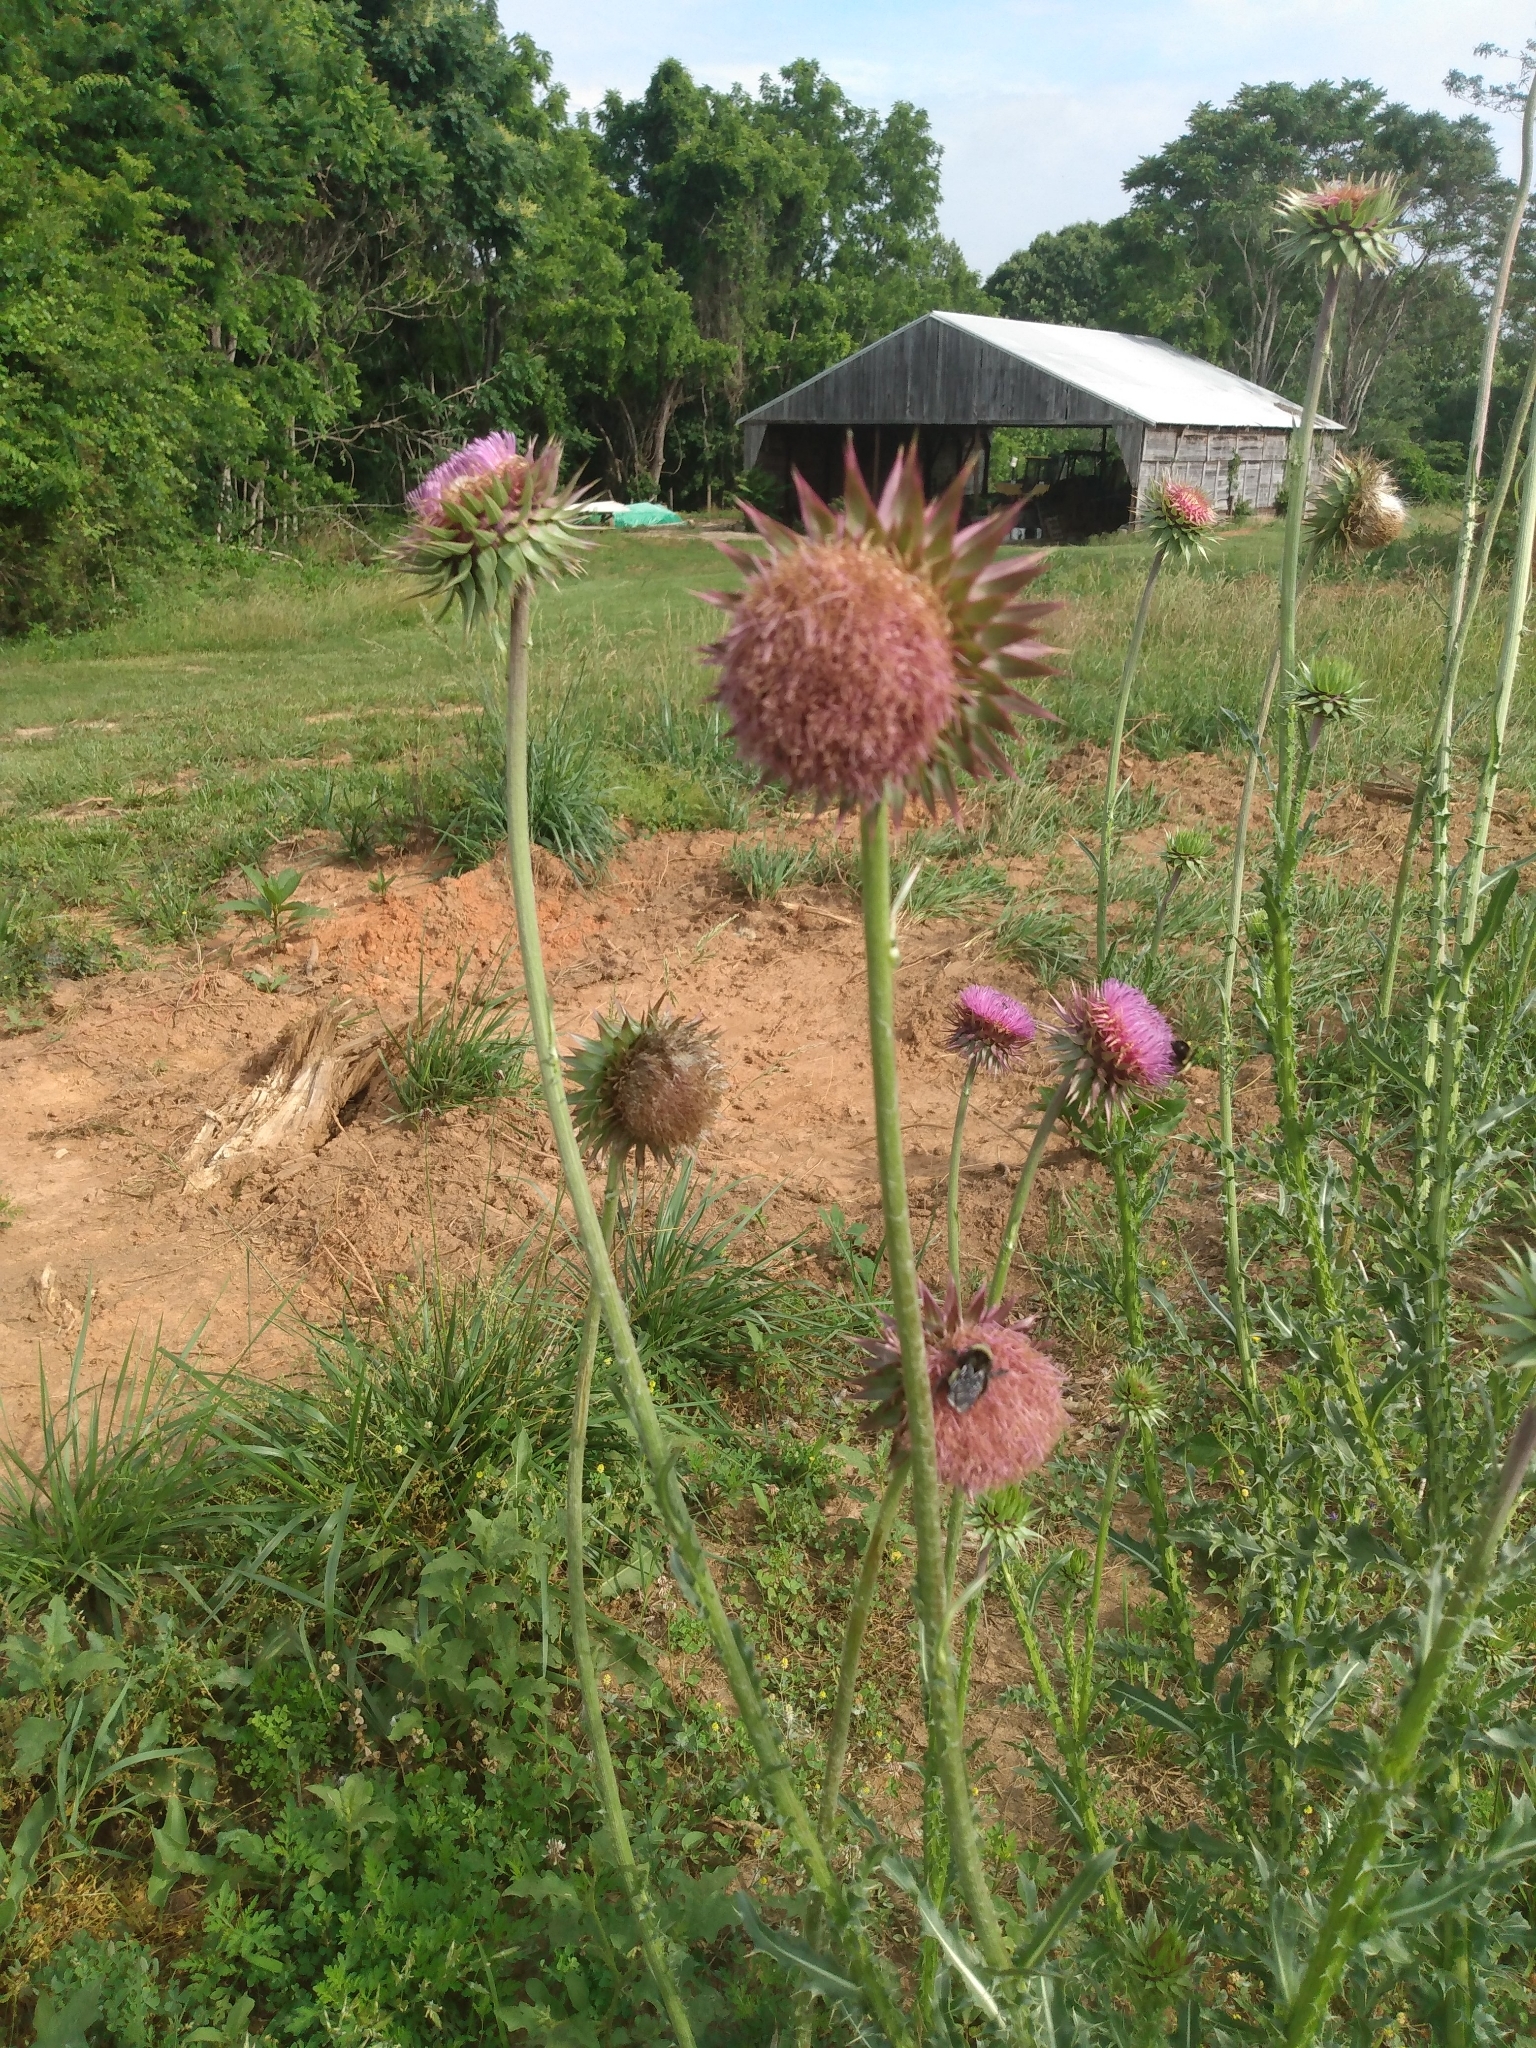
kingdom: Plantae
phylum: Tracheophyta
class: Magnoliopsida
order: Asterales
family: Asteraceae
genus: Carduus
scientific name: Carduus nutans
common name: Musk thistle
